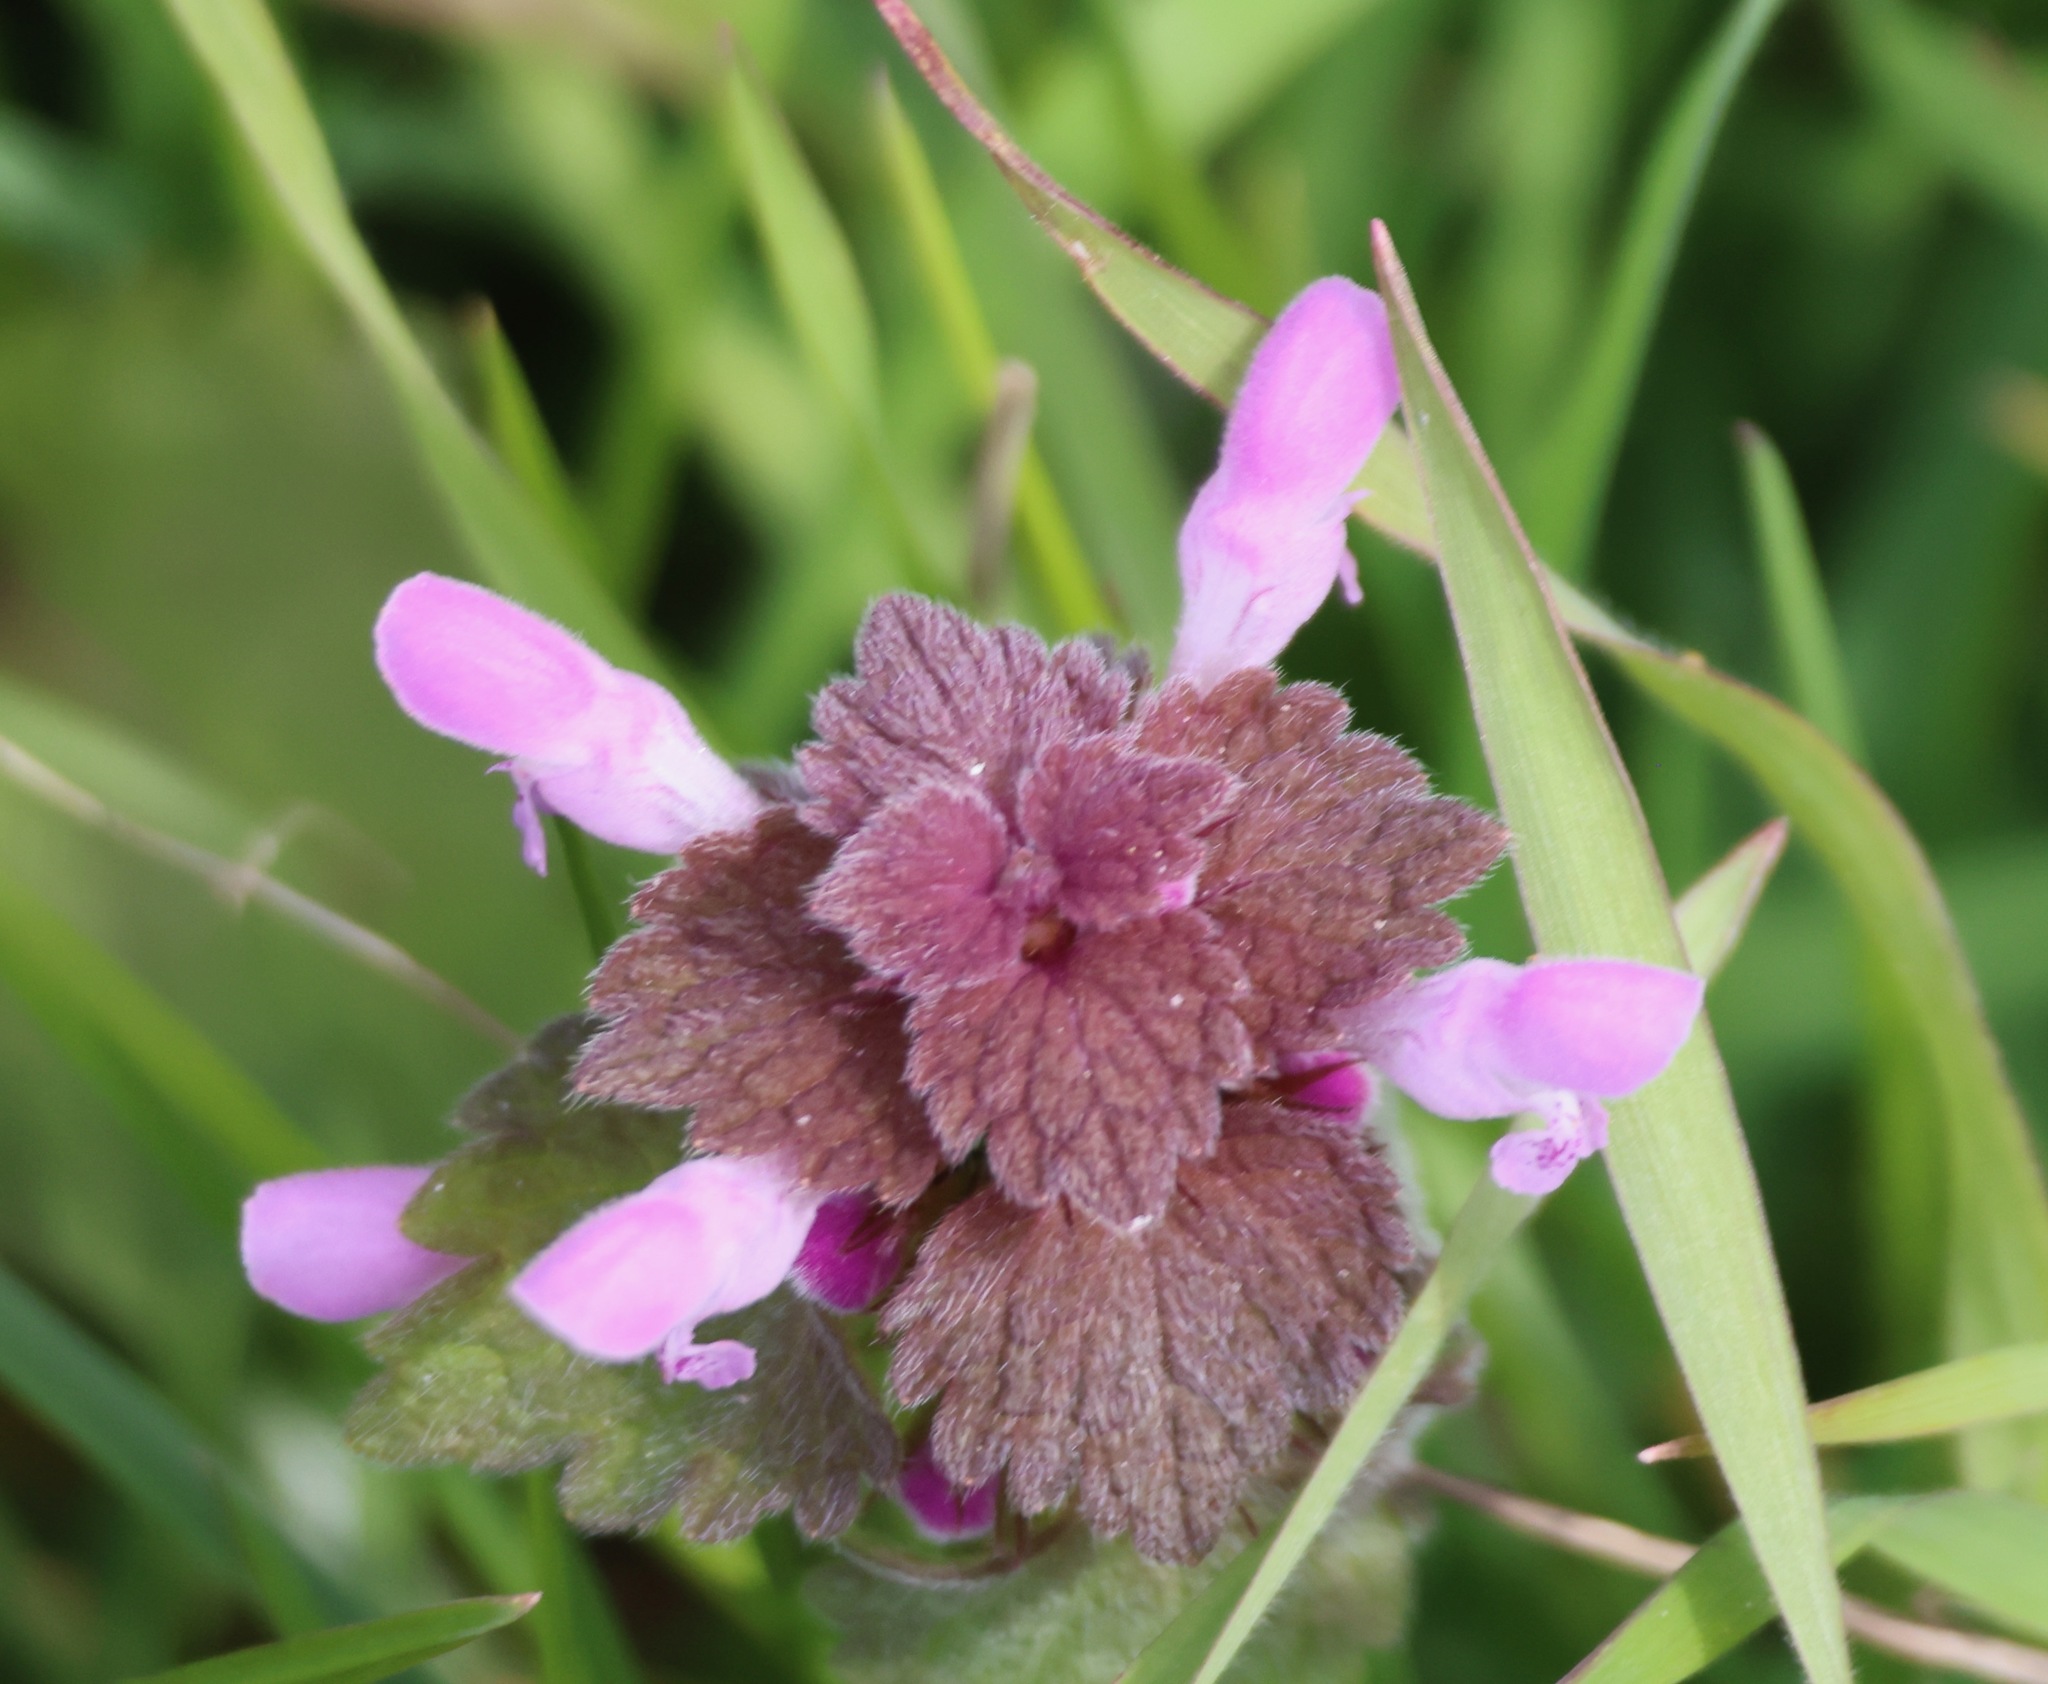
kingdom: Plantae
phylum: Tracheophyta
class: Magnoliopsida
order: Lamiales
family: Lamiaceae
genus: Lamium
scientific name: Lamium purpureum
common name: Red dead-nettle
